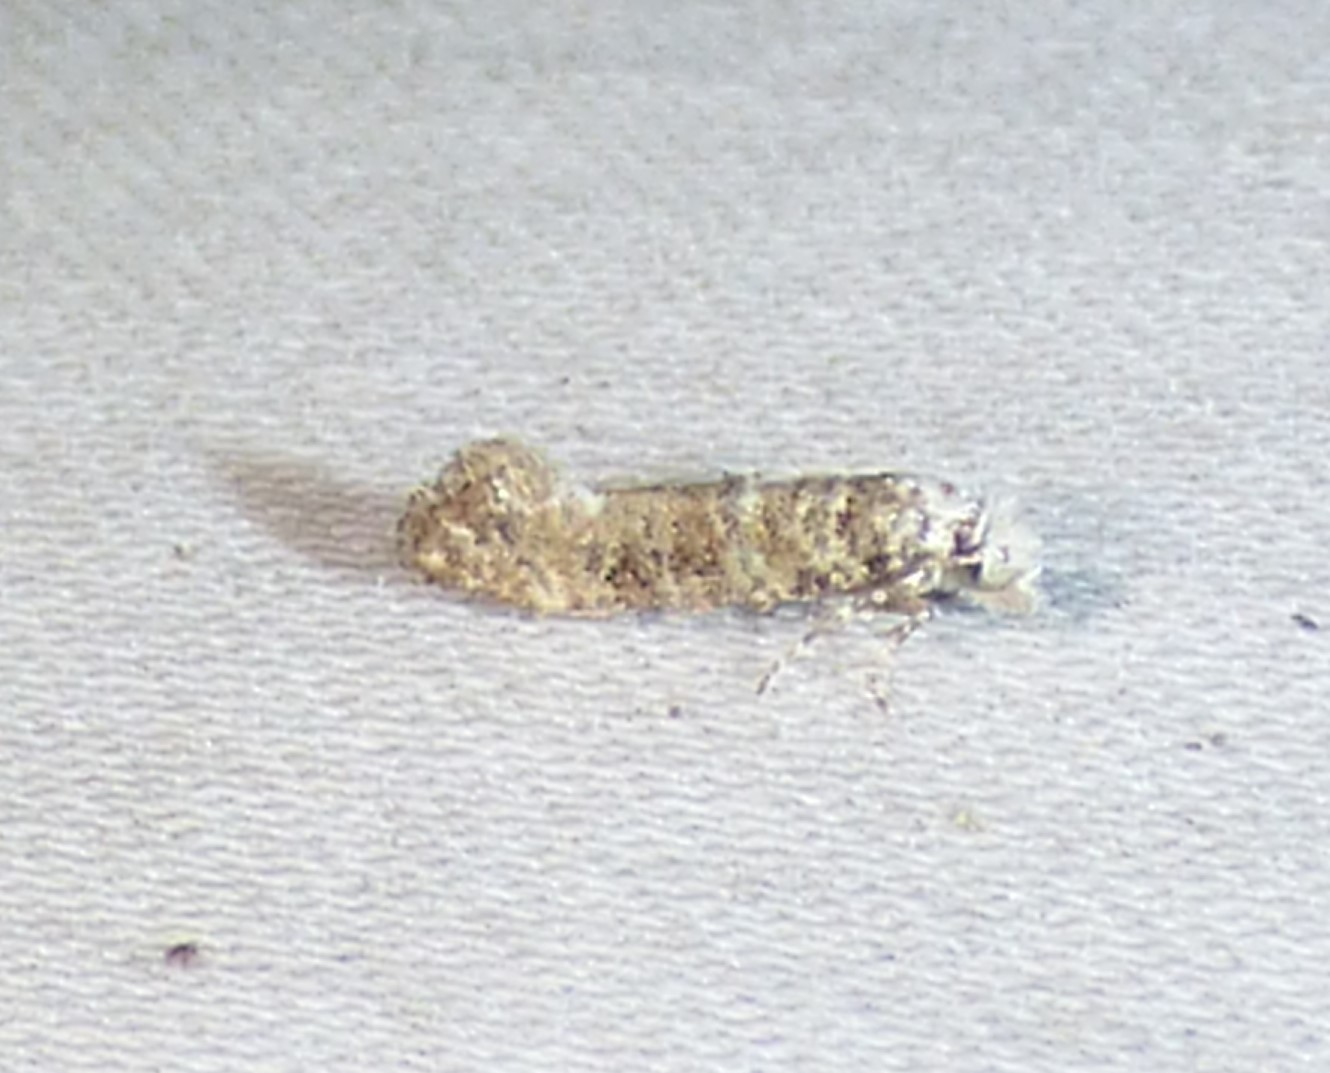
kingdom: Animalia
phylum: Arthropoda
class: Insecta
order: Lepidoptera
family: Tineidae
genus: Xylesthia
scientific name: Xylesthia pruniramiella
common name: Clemens' bark moth
